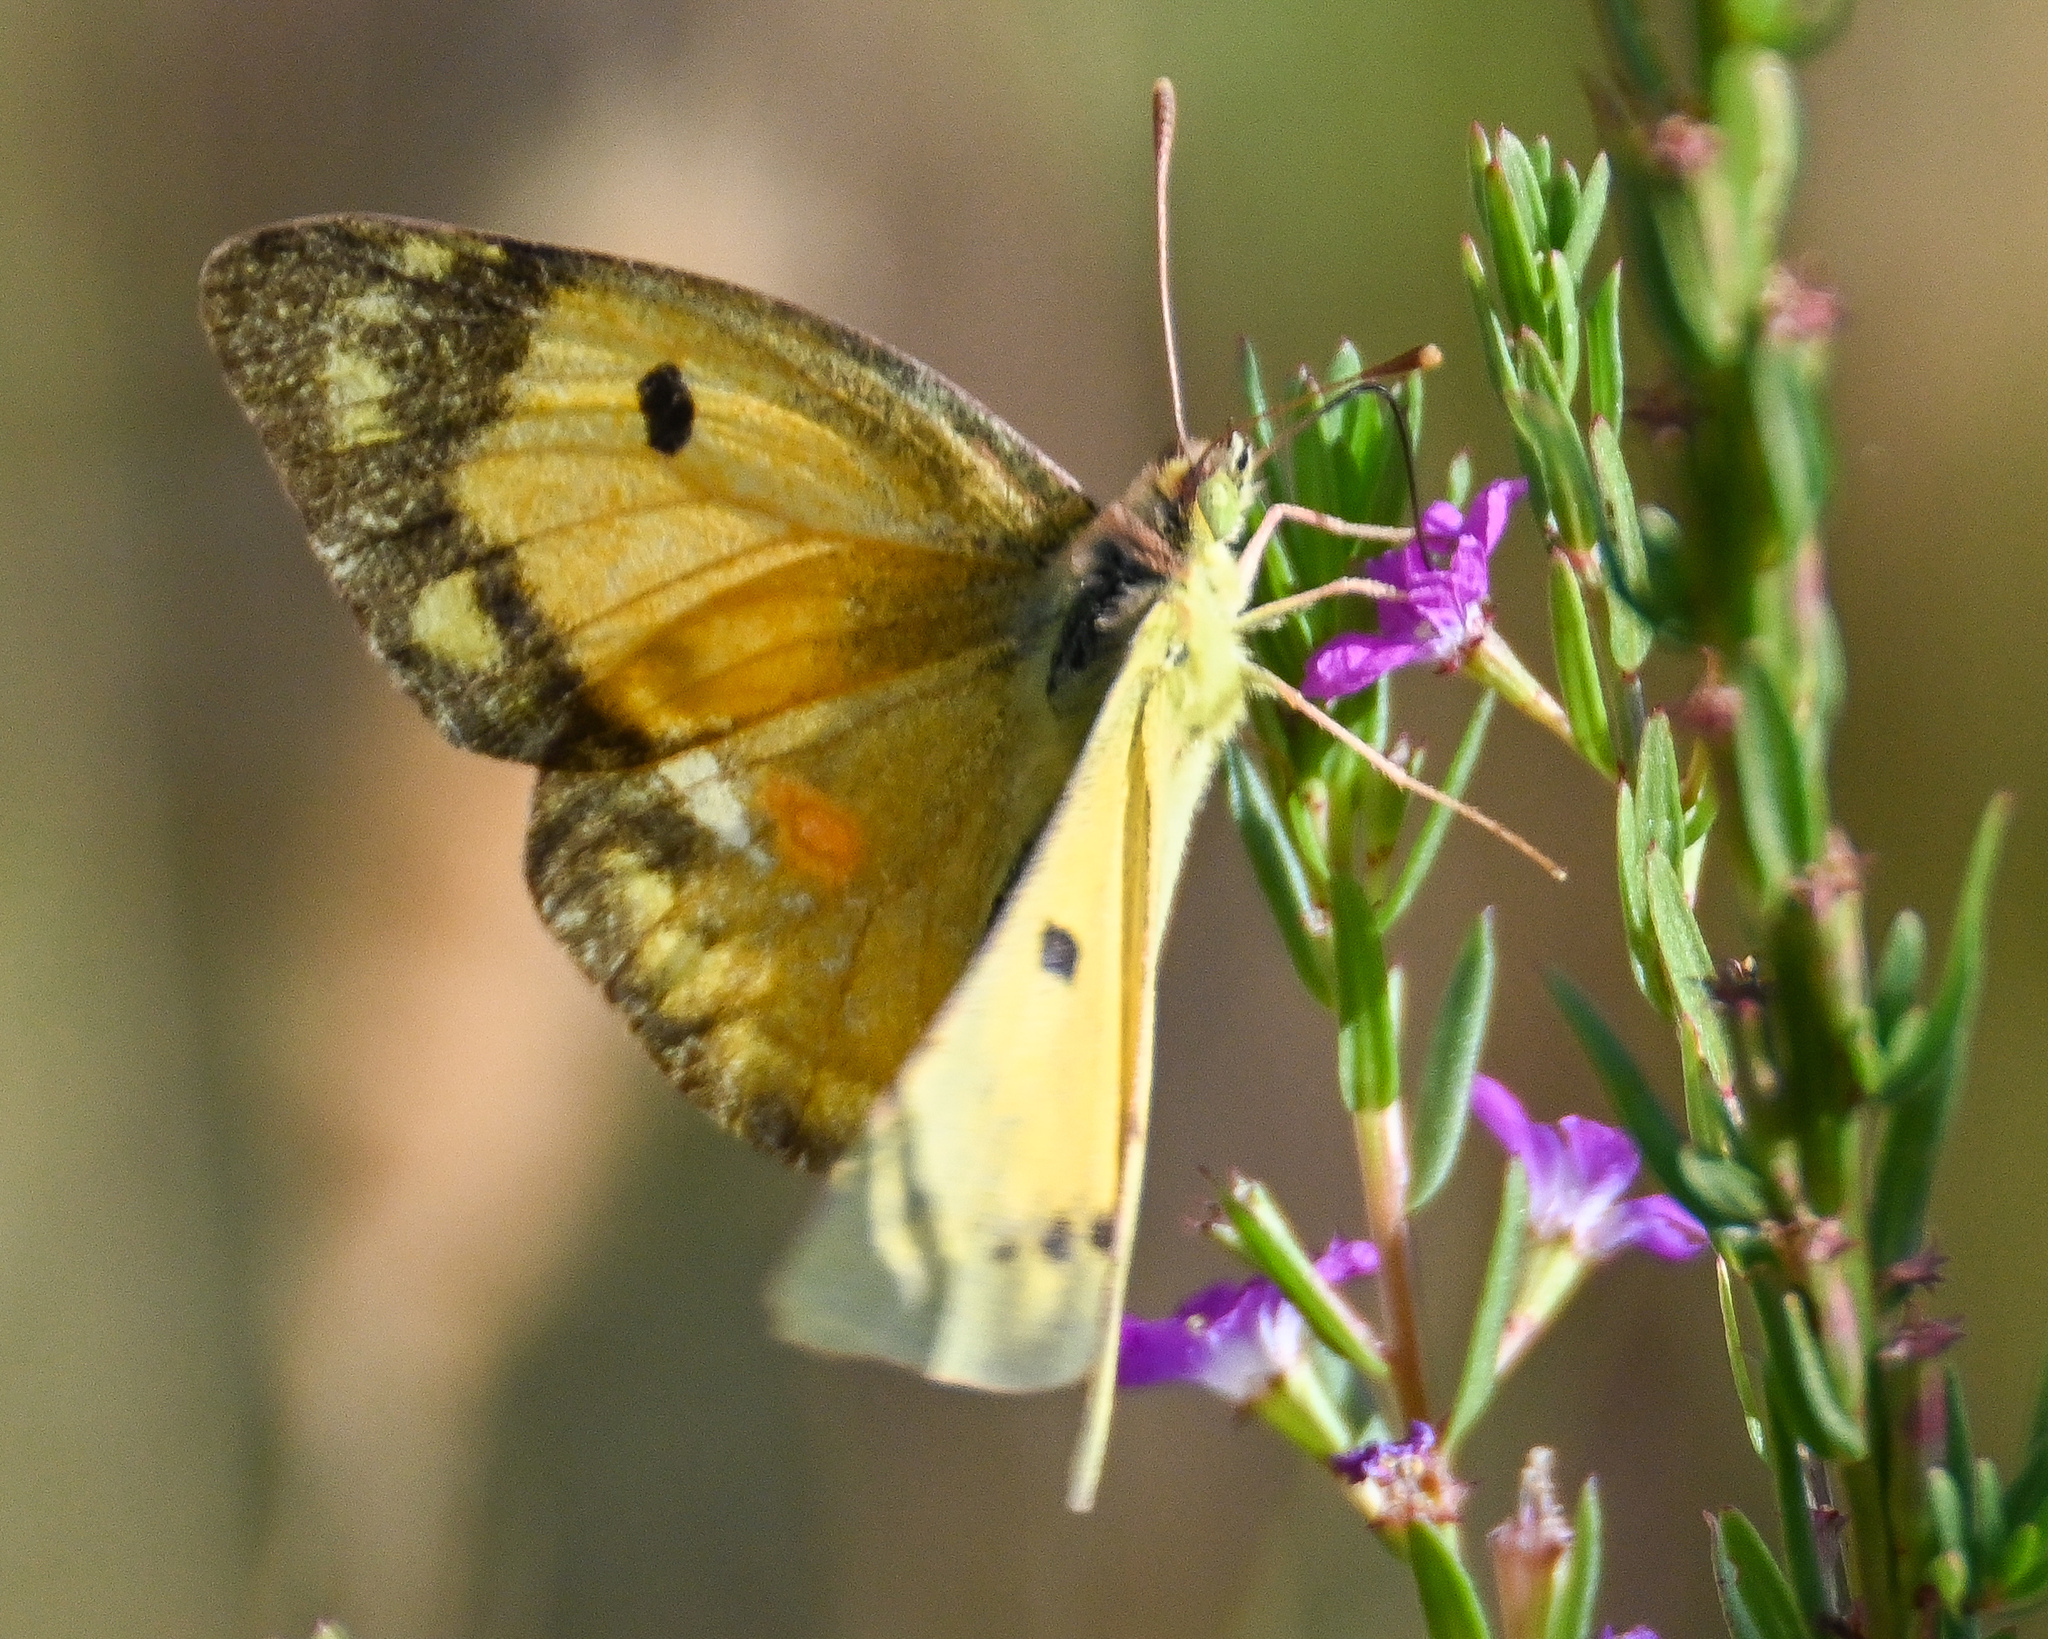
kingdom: Animalia
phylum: Arthropoda
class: Insecta
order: Lepidoptera
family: Pieridae
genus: Colias
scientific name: Colias croceus
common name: Clouded yellow
